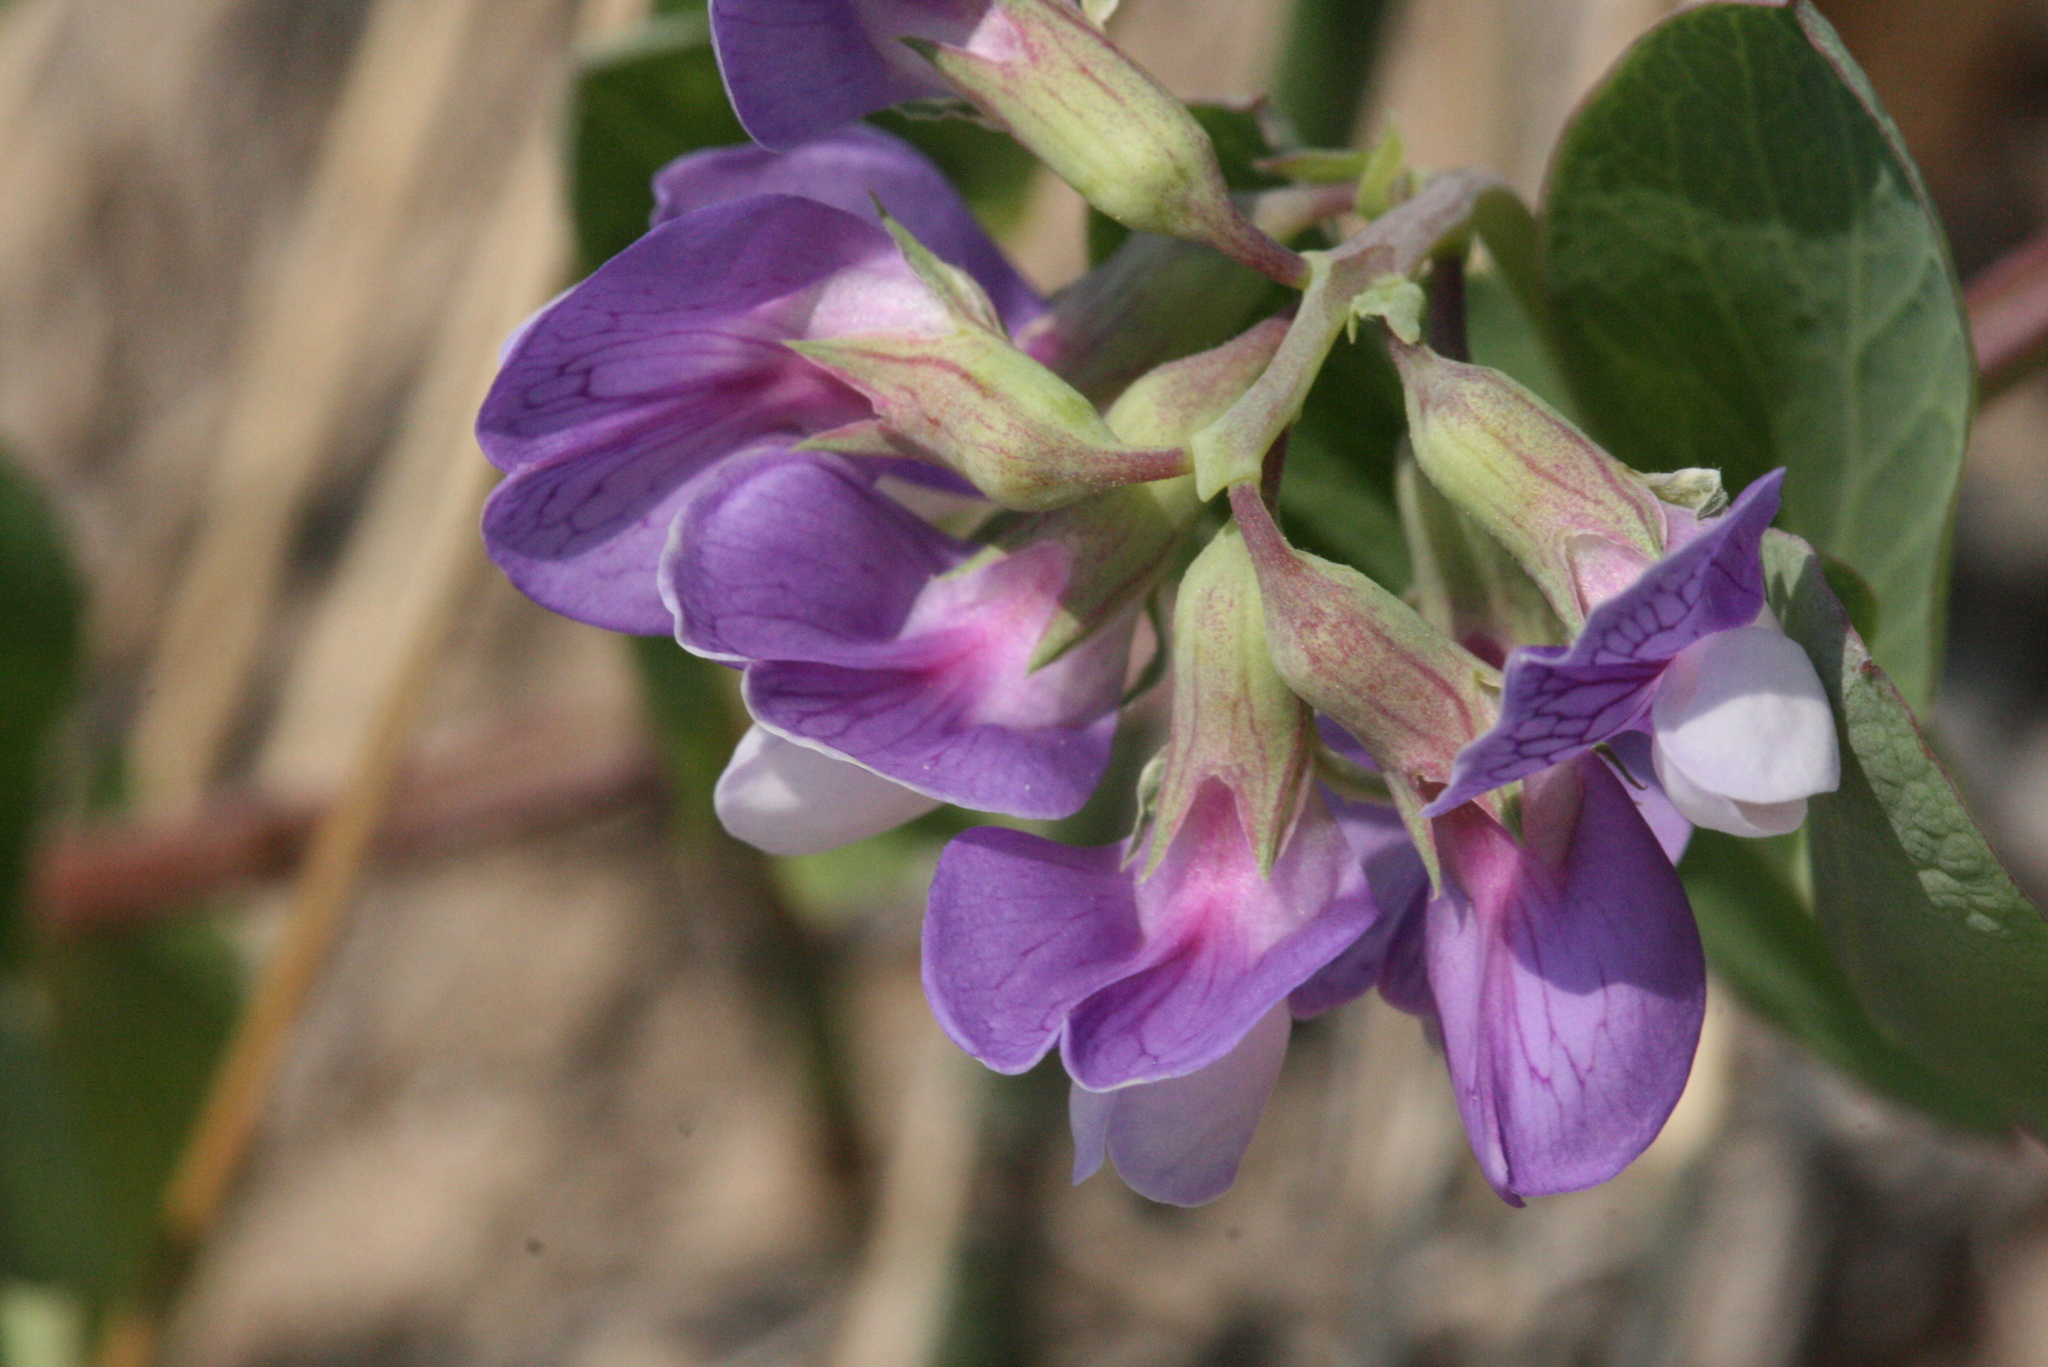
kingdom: Plantae
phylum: Tracheophyta
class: Magnoliopsida
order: Fabales
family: Fabaceae
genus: Lathyrus
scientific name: Lathyrus japonicus
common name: Sea pea
